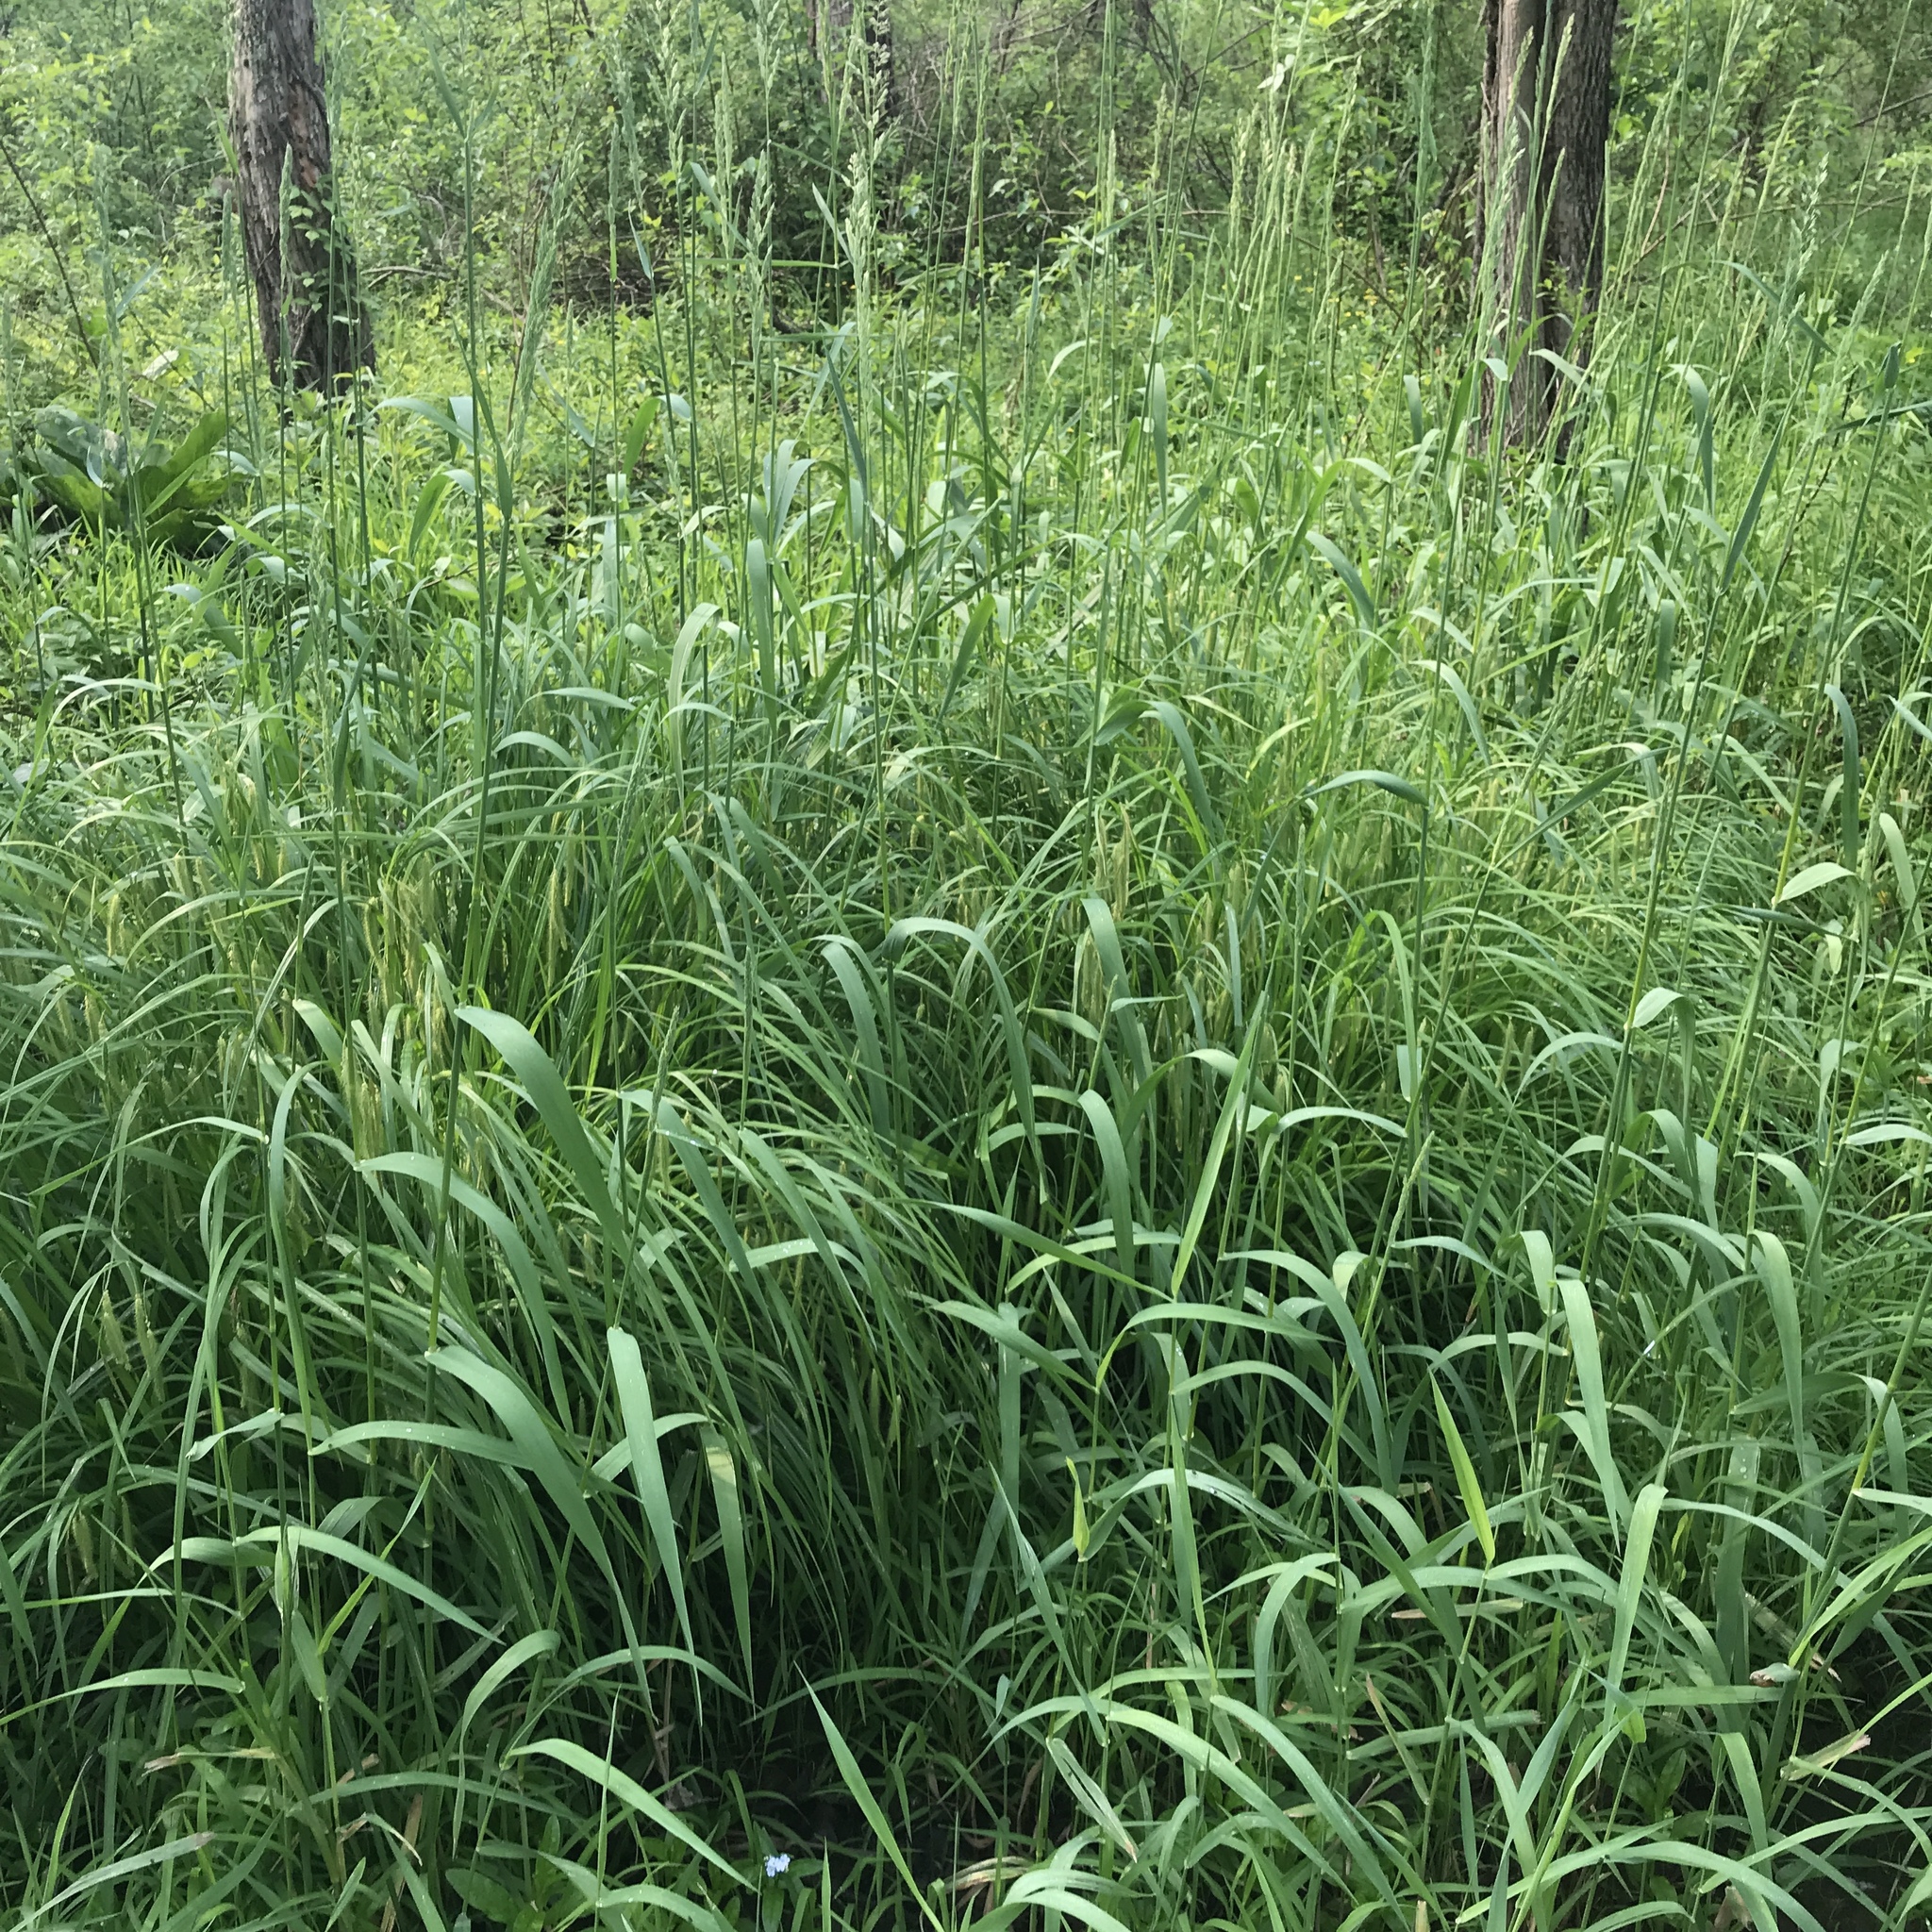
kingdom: Plantae
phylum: Tracheophyta
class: Liliopsida
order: Poales
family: Poaceae
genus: Phalaris
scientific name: Phalaris arundinacea
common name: Reed canary-grass
